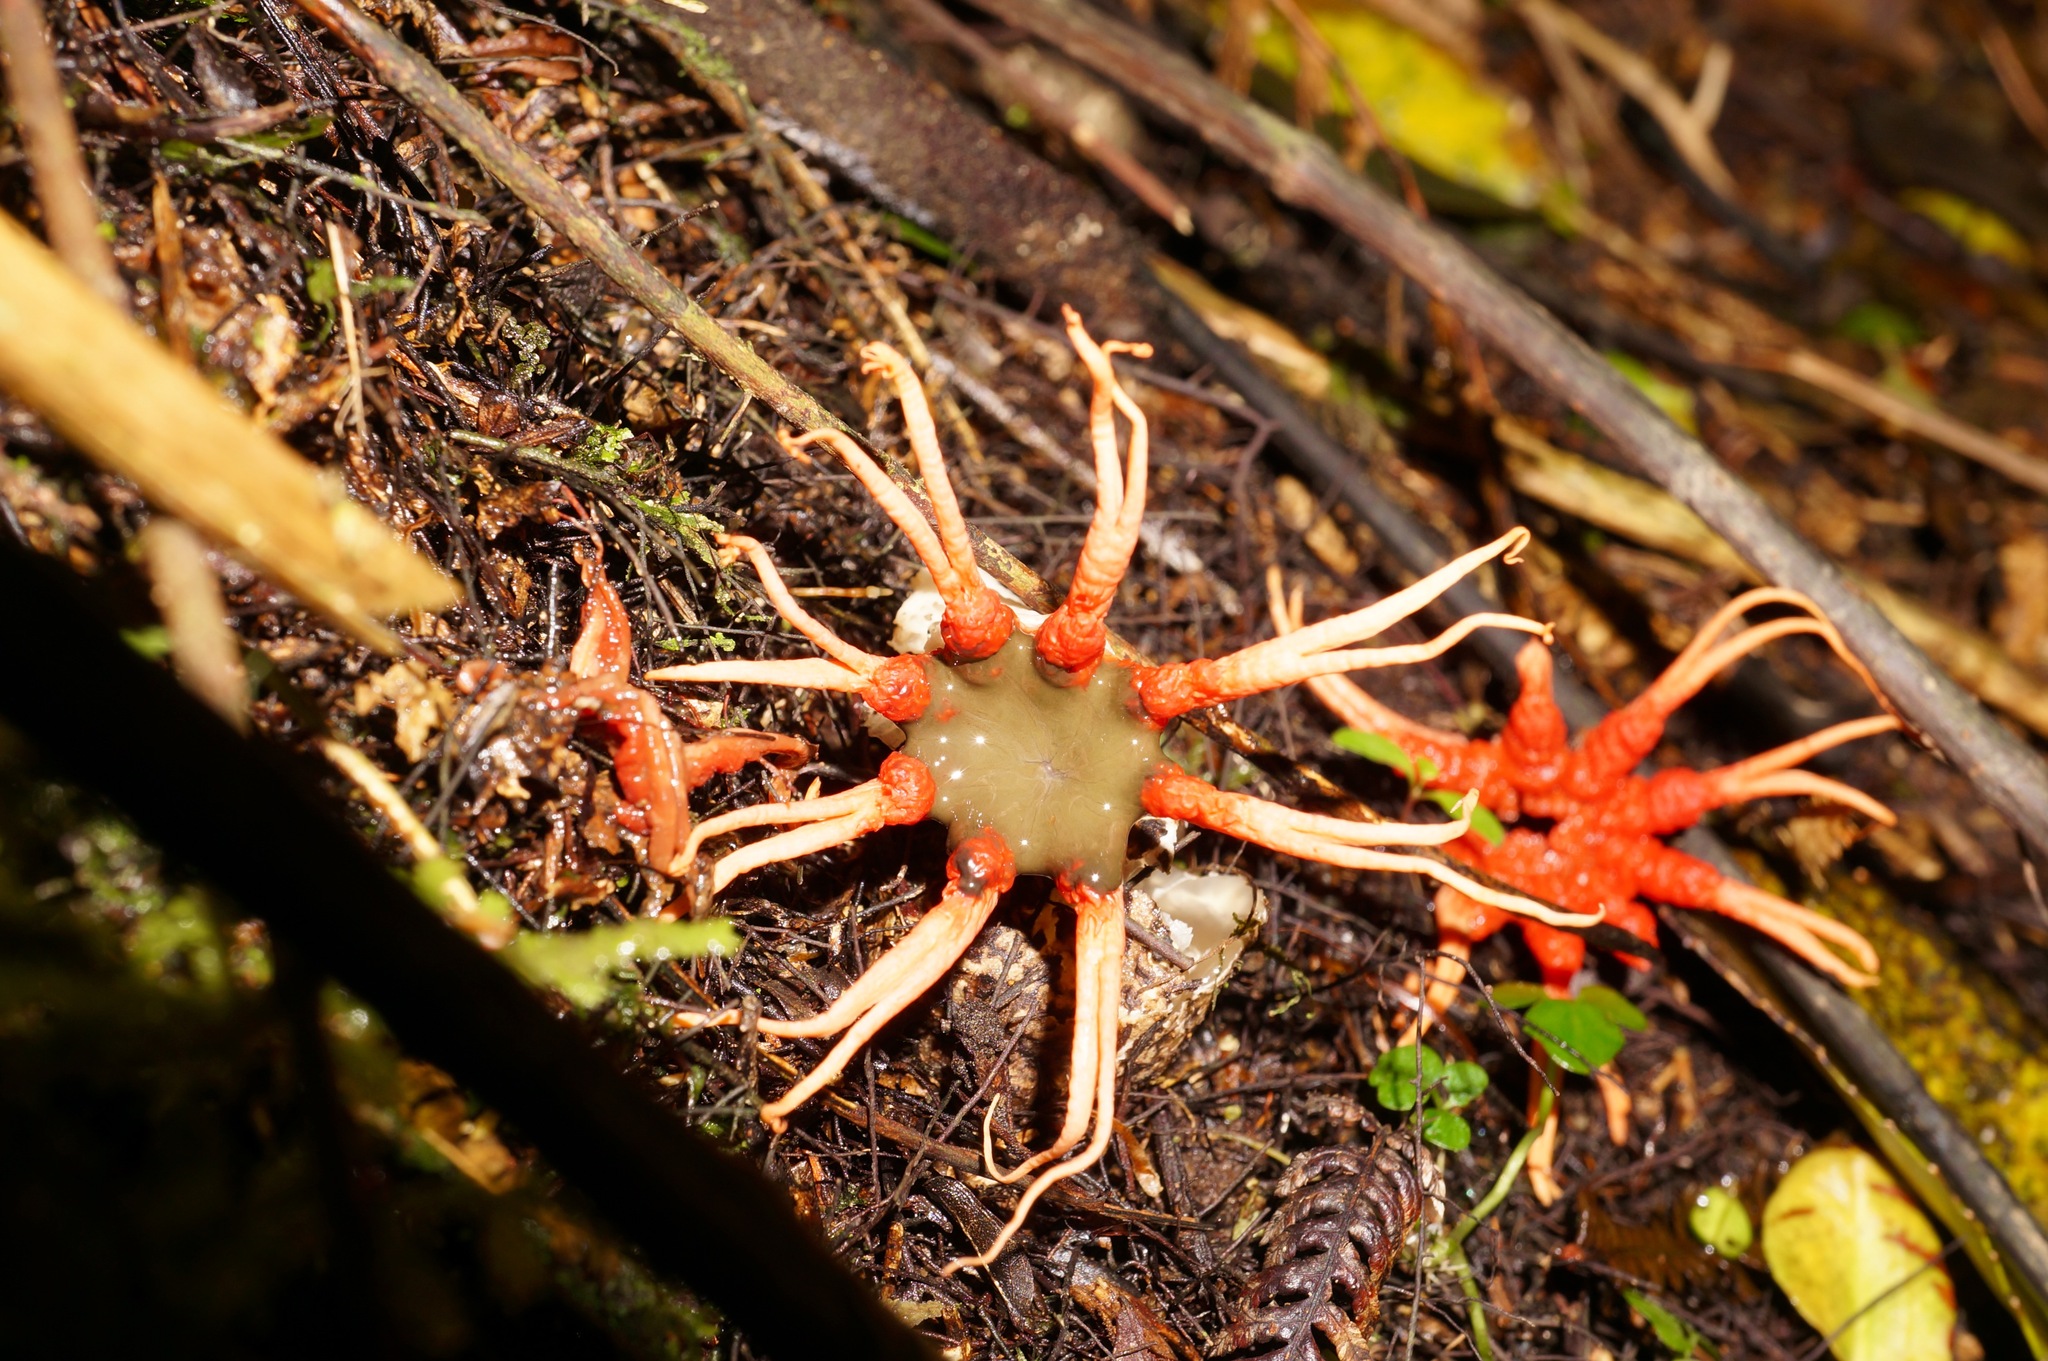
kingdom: Fungi
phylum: Basidiomycota
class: Agaricomycetes
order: Phallales
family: Phallaceae
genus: Aseroe
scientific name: Aseroe rubra
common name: Starfish fungus
